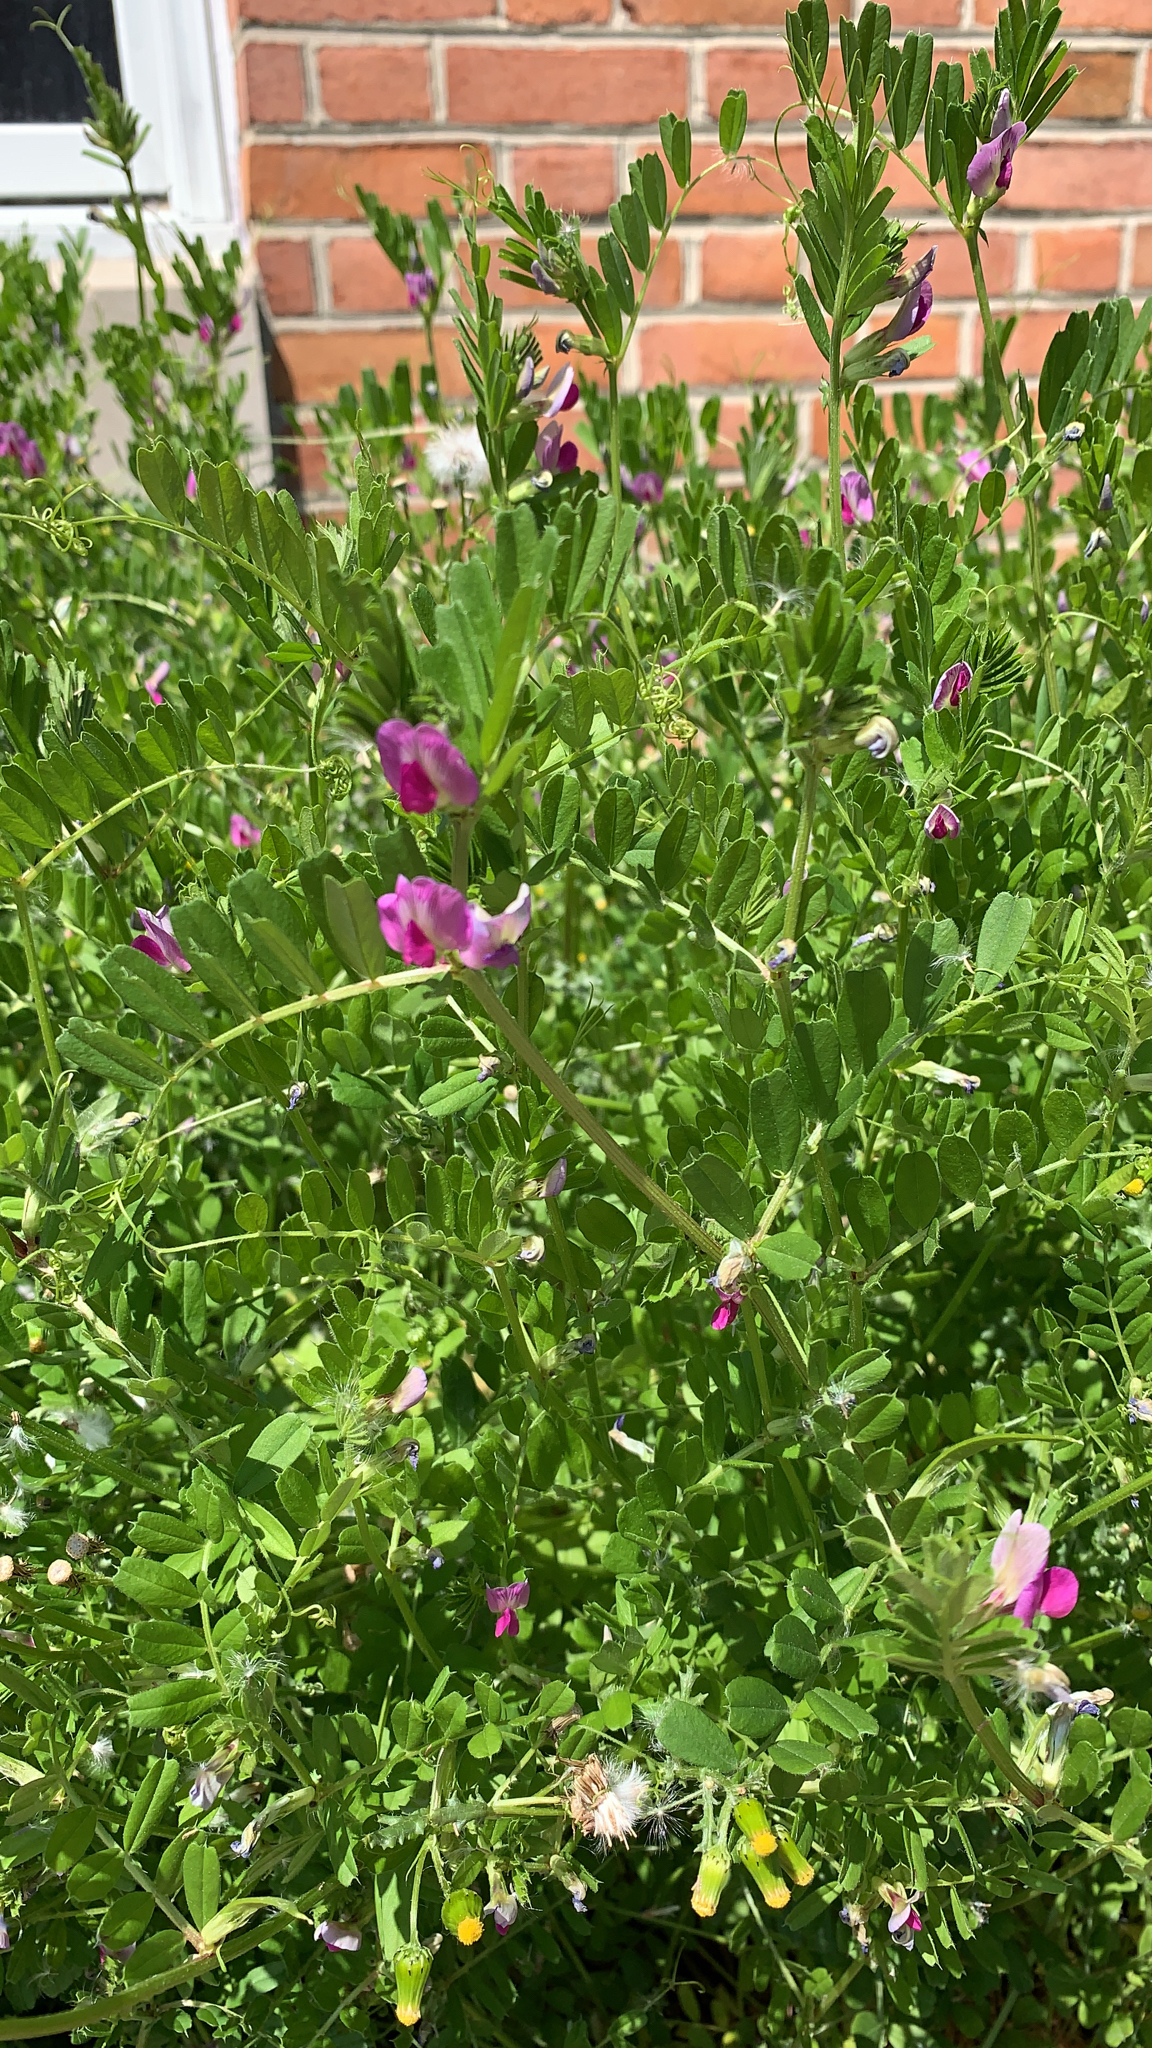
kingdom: Plantae
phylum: Tracheophyta
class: Magnoliopsida
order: Fabales
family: Fabaceae
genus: Vicia
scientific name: Vicia sativa
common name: Garden vetch
